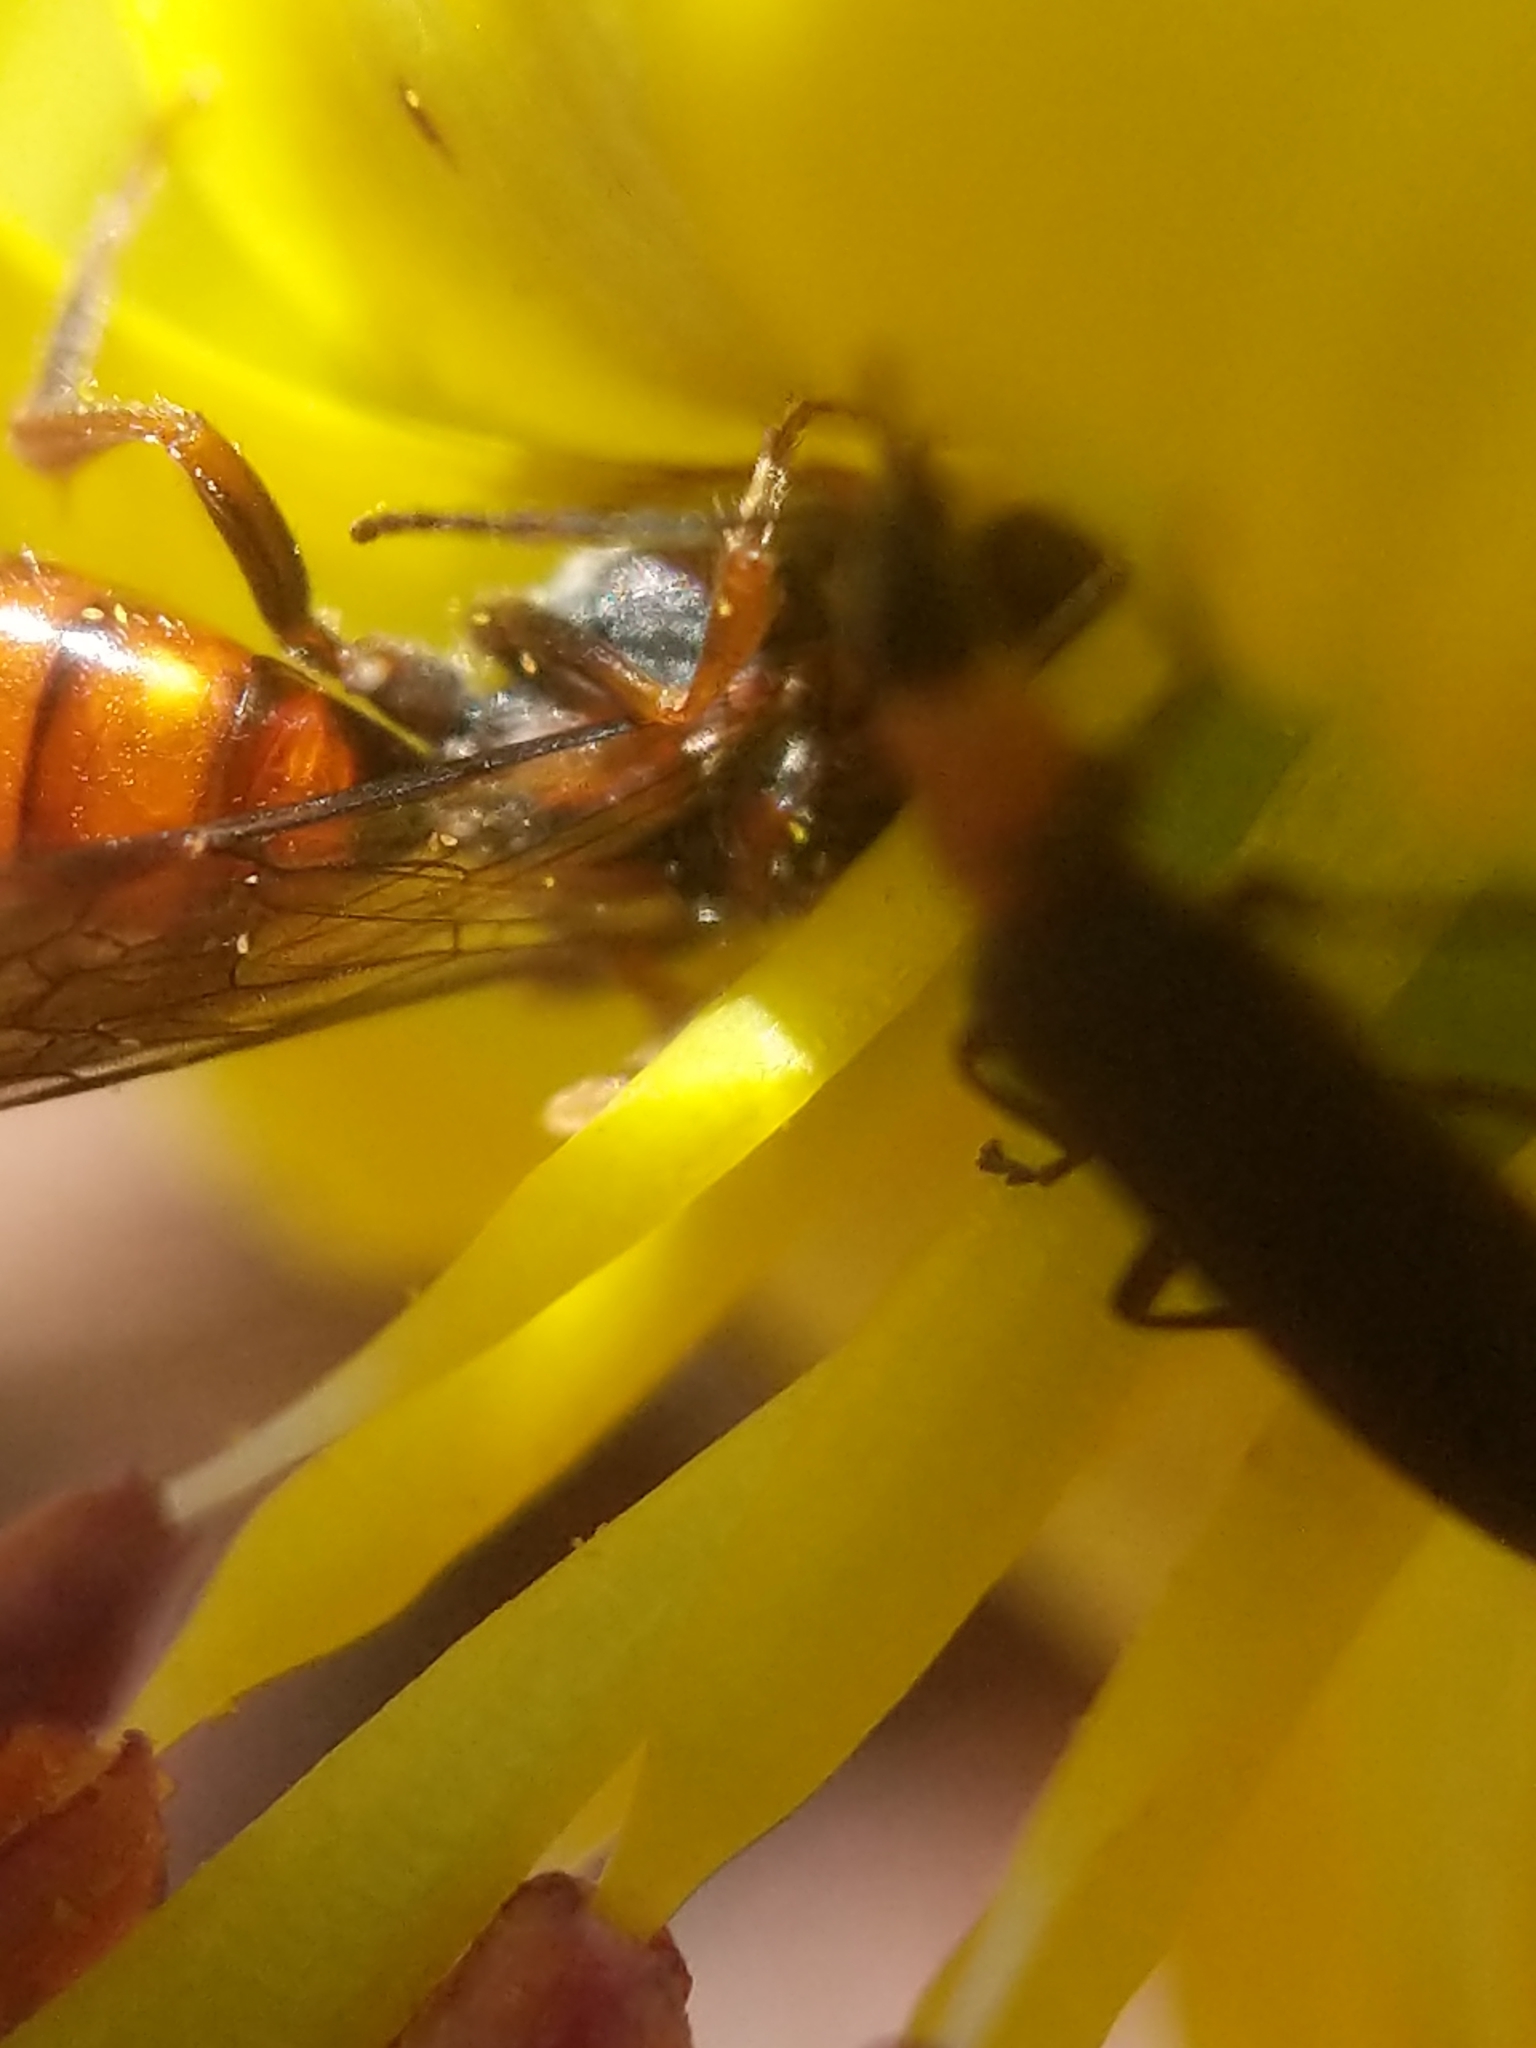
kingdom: Animalia
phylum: Arthropoda
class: Insecta
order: Coleoptera
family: Oedemeridae
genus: Ischnomera
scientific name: Ischnomera
